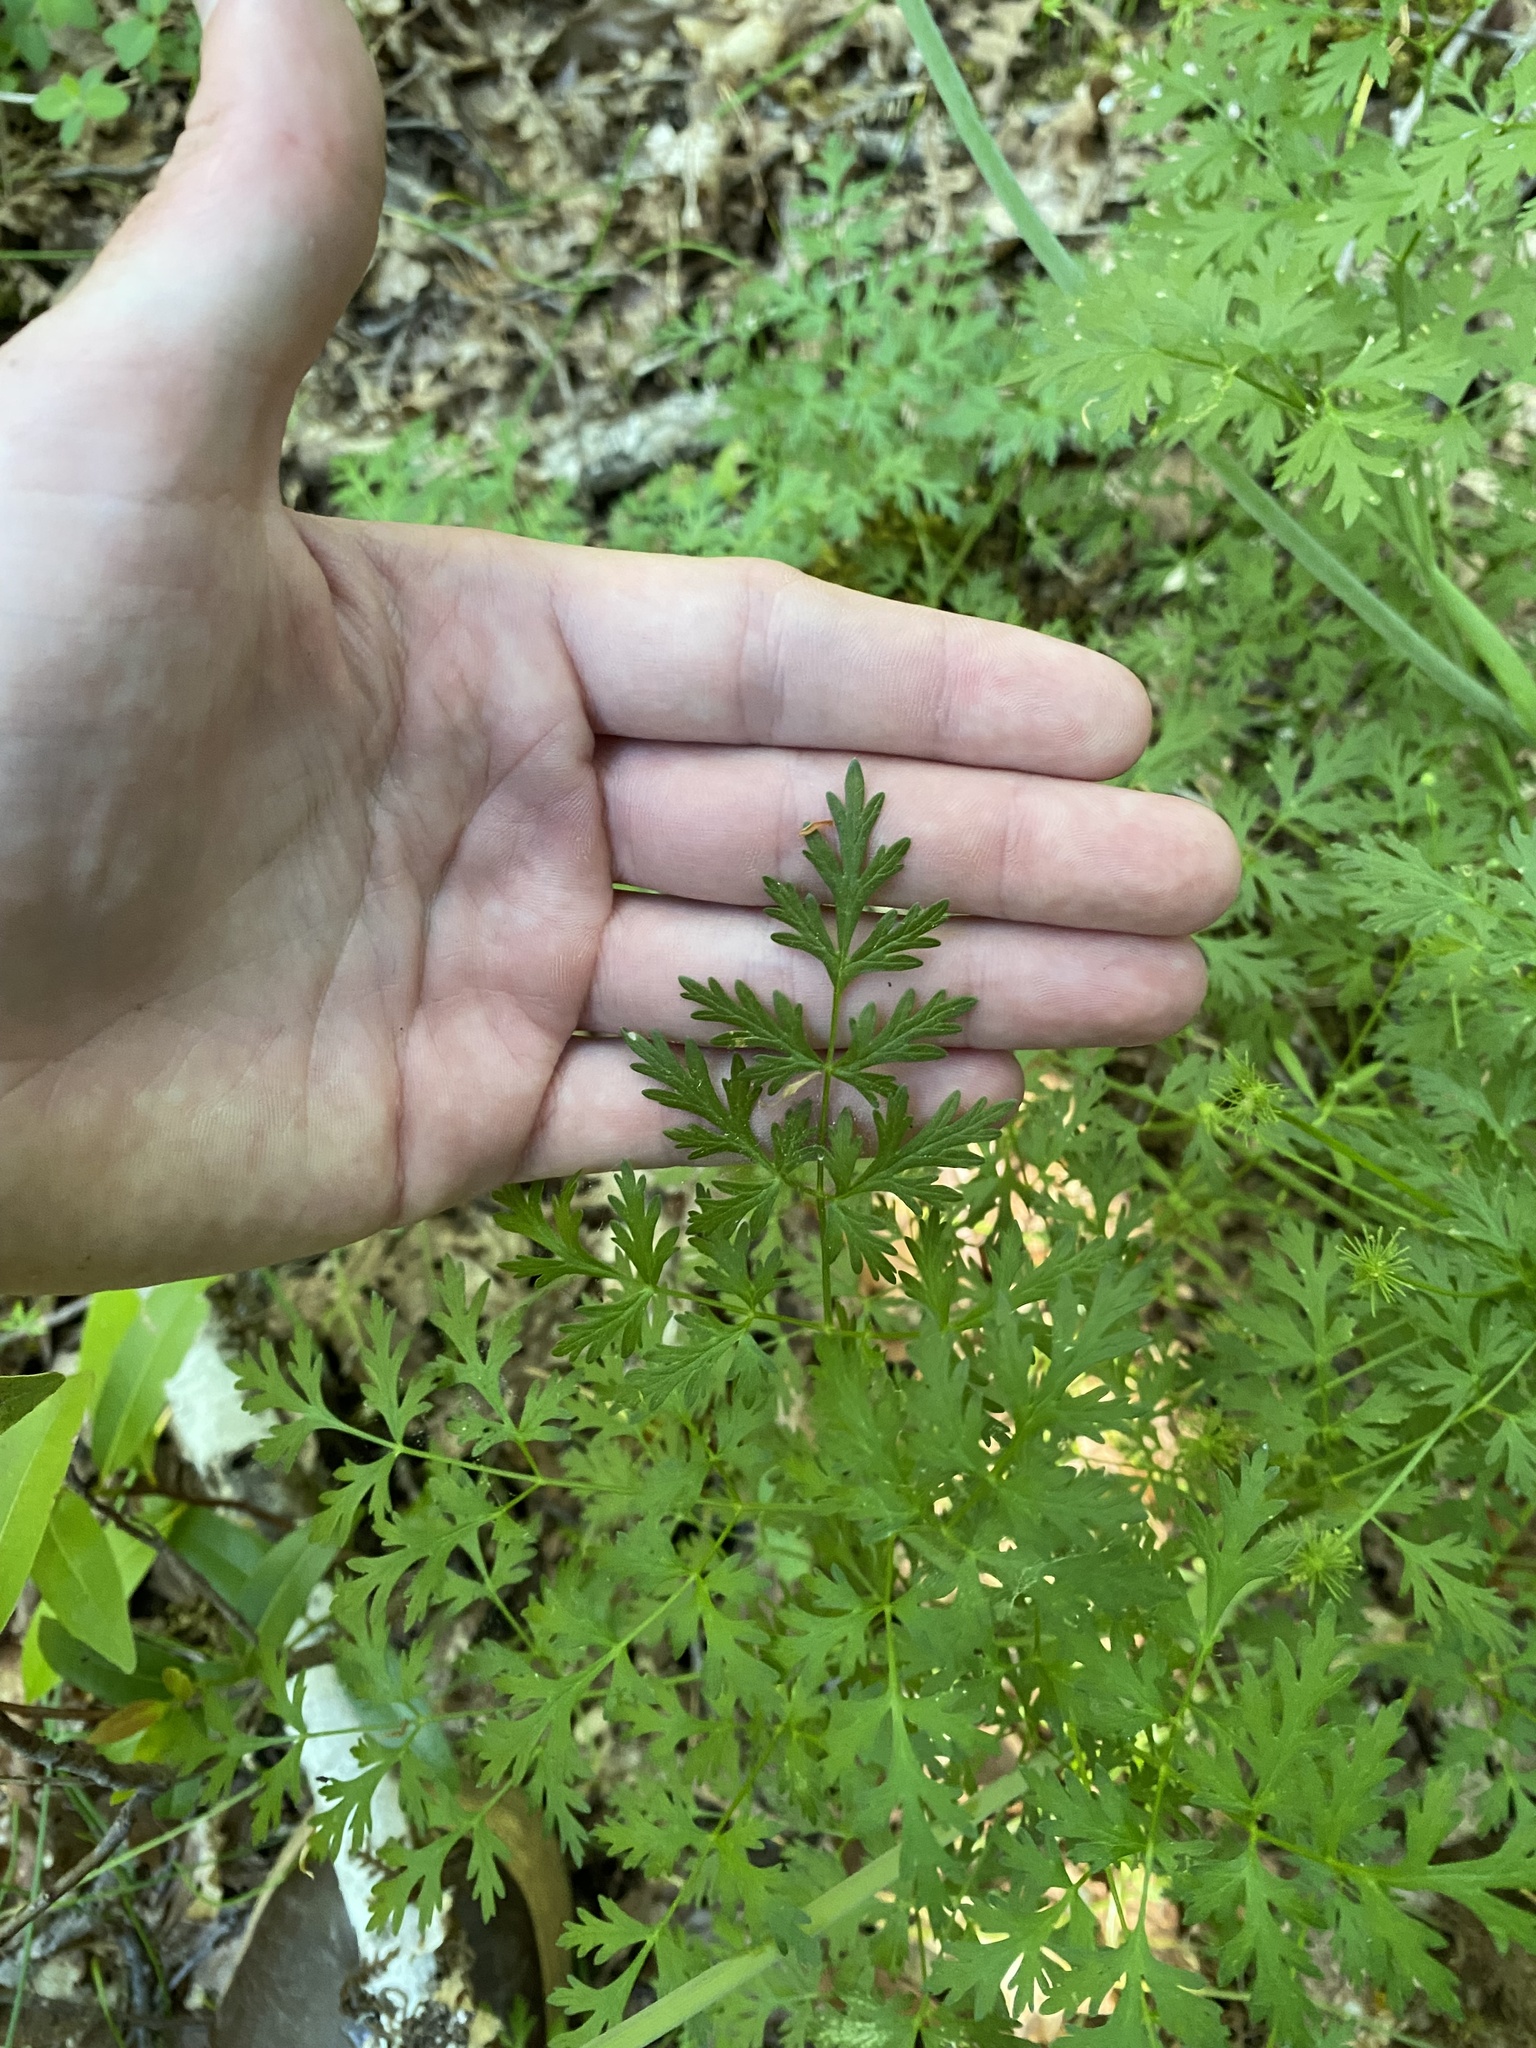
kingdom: Plantae
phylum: Tracheophyta
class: Magnoliopsida
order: Apiales
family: Apiaceae
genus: Lomatium
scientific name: Lomatium dissectum
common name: Lomatium
